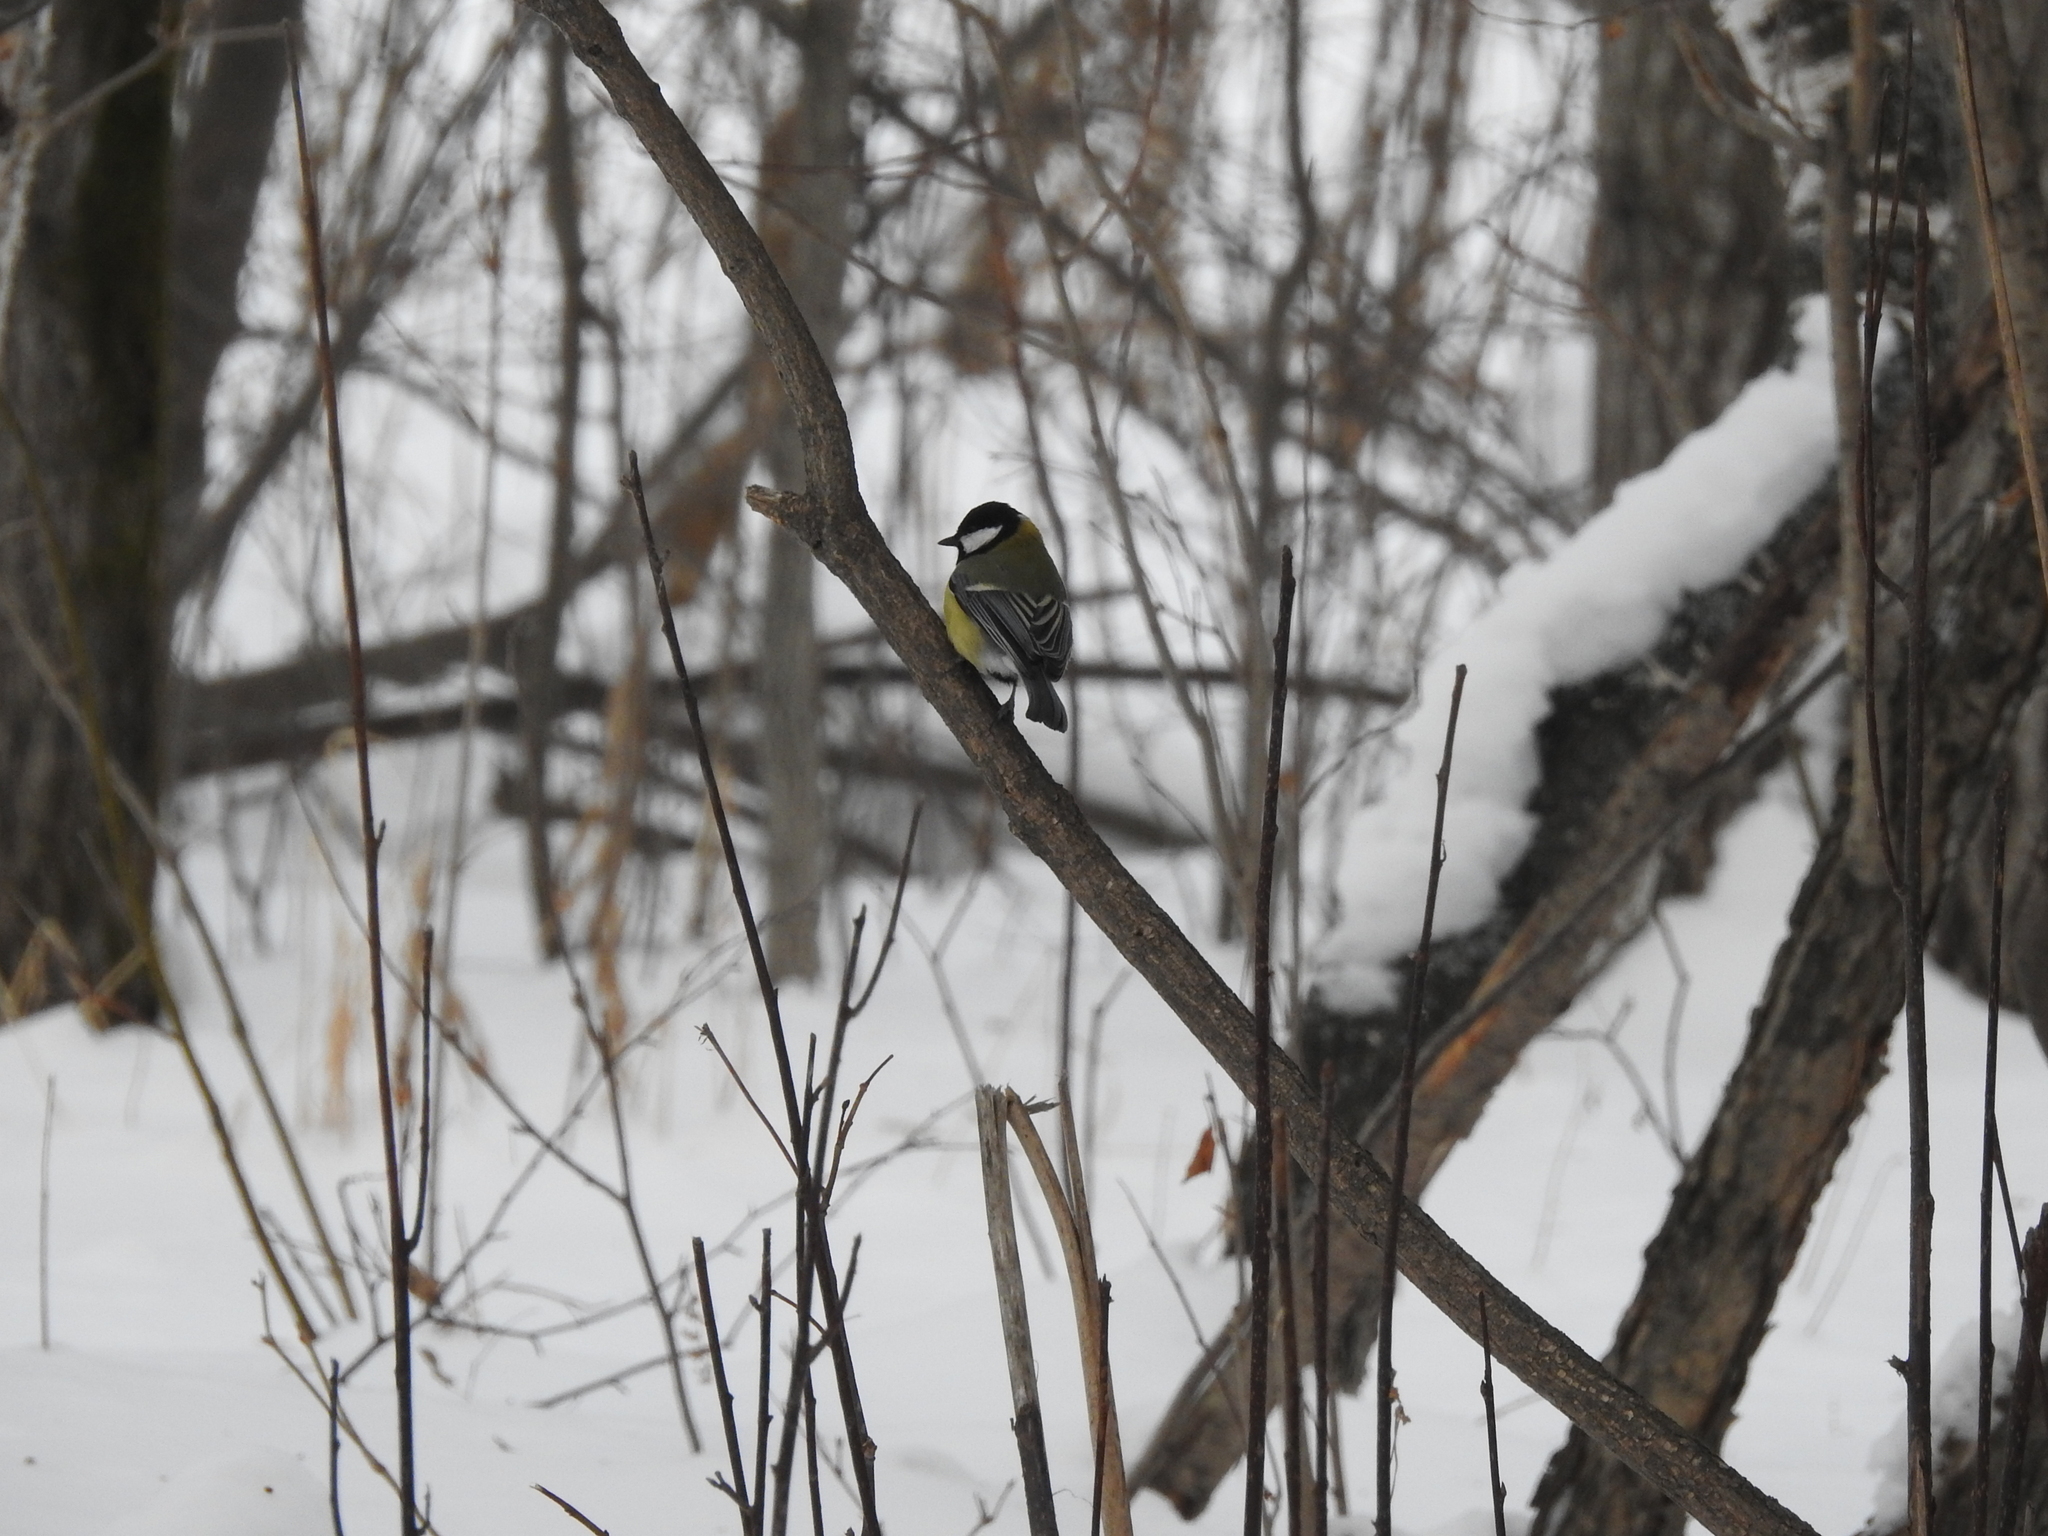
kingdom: Animalia
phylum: Chordata
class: Aves
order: Passeriformes
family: Paridae
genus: Parus
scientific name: Parus major
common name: Great tit
